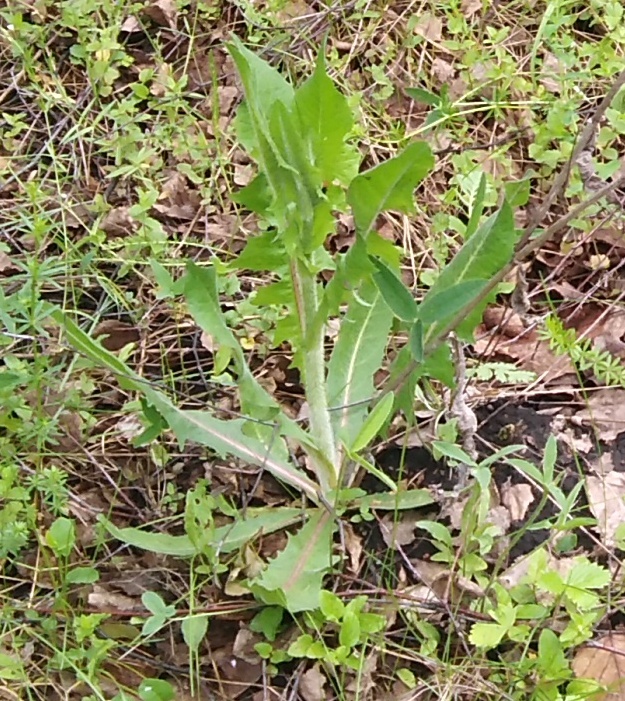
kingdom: Plantae
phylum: Tracheophyta
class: Magnoliopsida
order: Asterales
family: Asteraceae
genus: Cichorium
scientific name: Cichorium intybus
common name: Chicory
